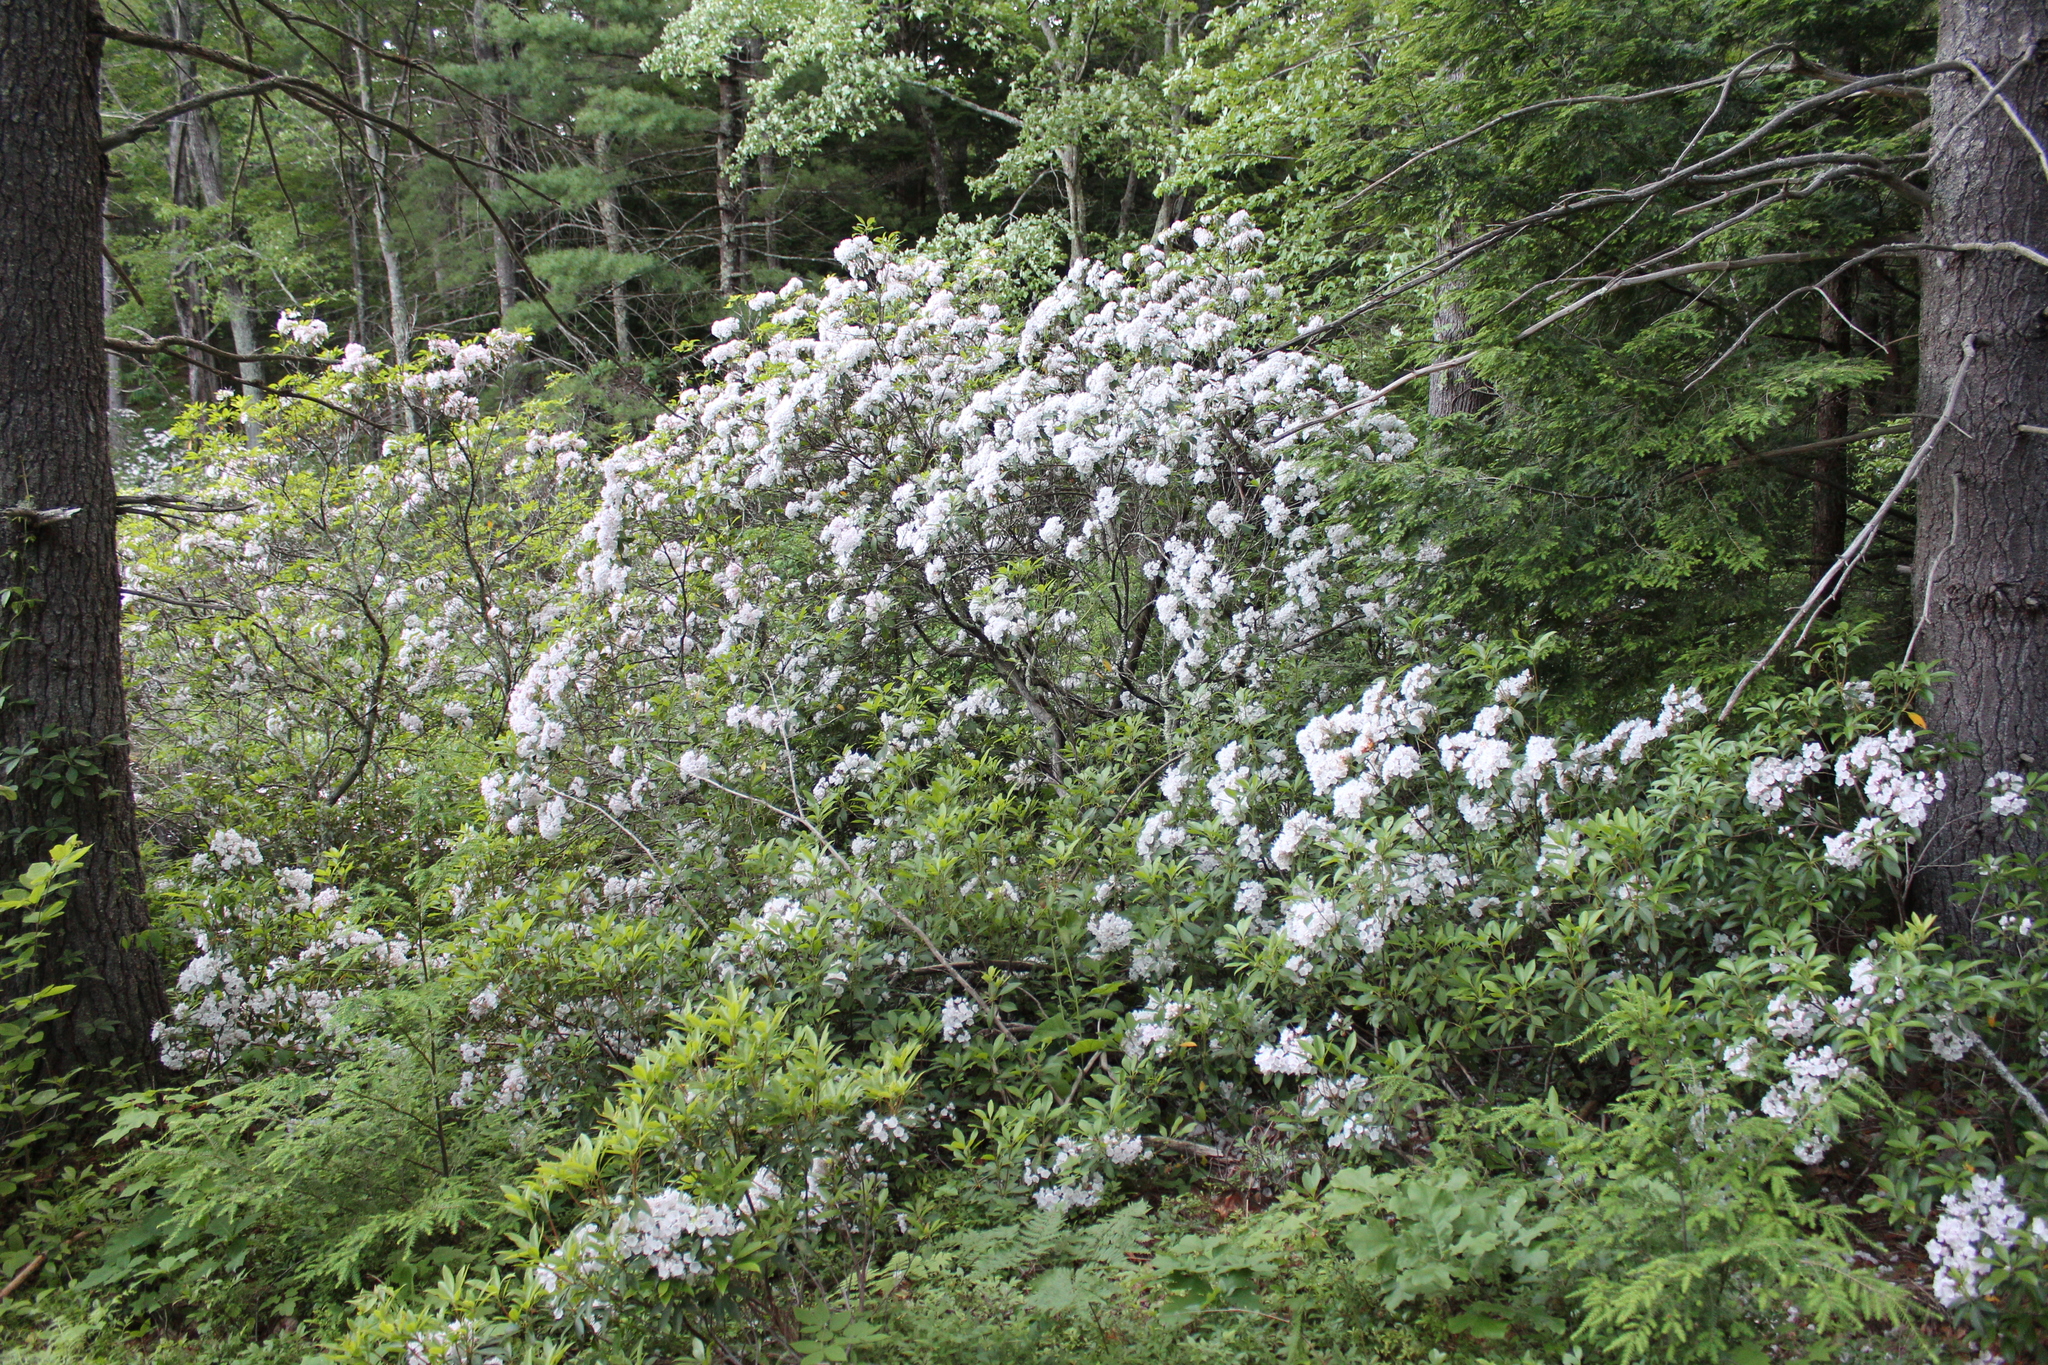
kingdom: Plantae
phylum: Tracheophyta
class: Magnoliopsida
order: Ericales
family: Ericaceae
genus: Kalmia
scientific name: Kalmia latifolia
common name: Mountain-laurel
